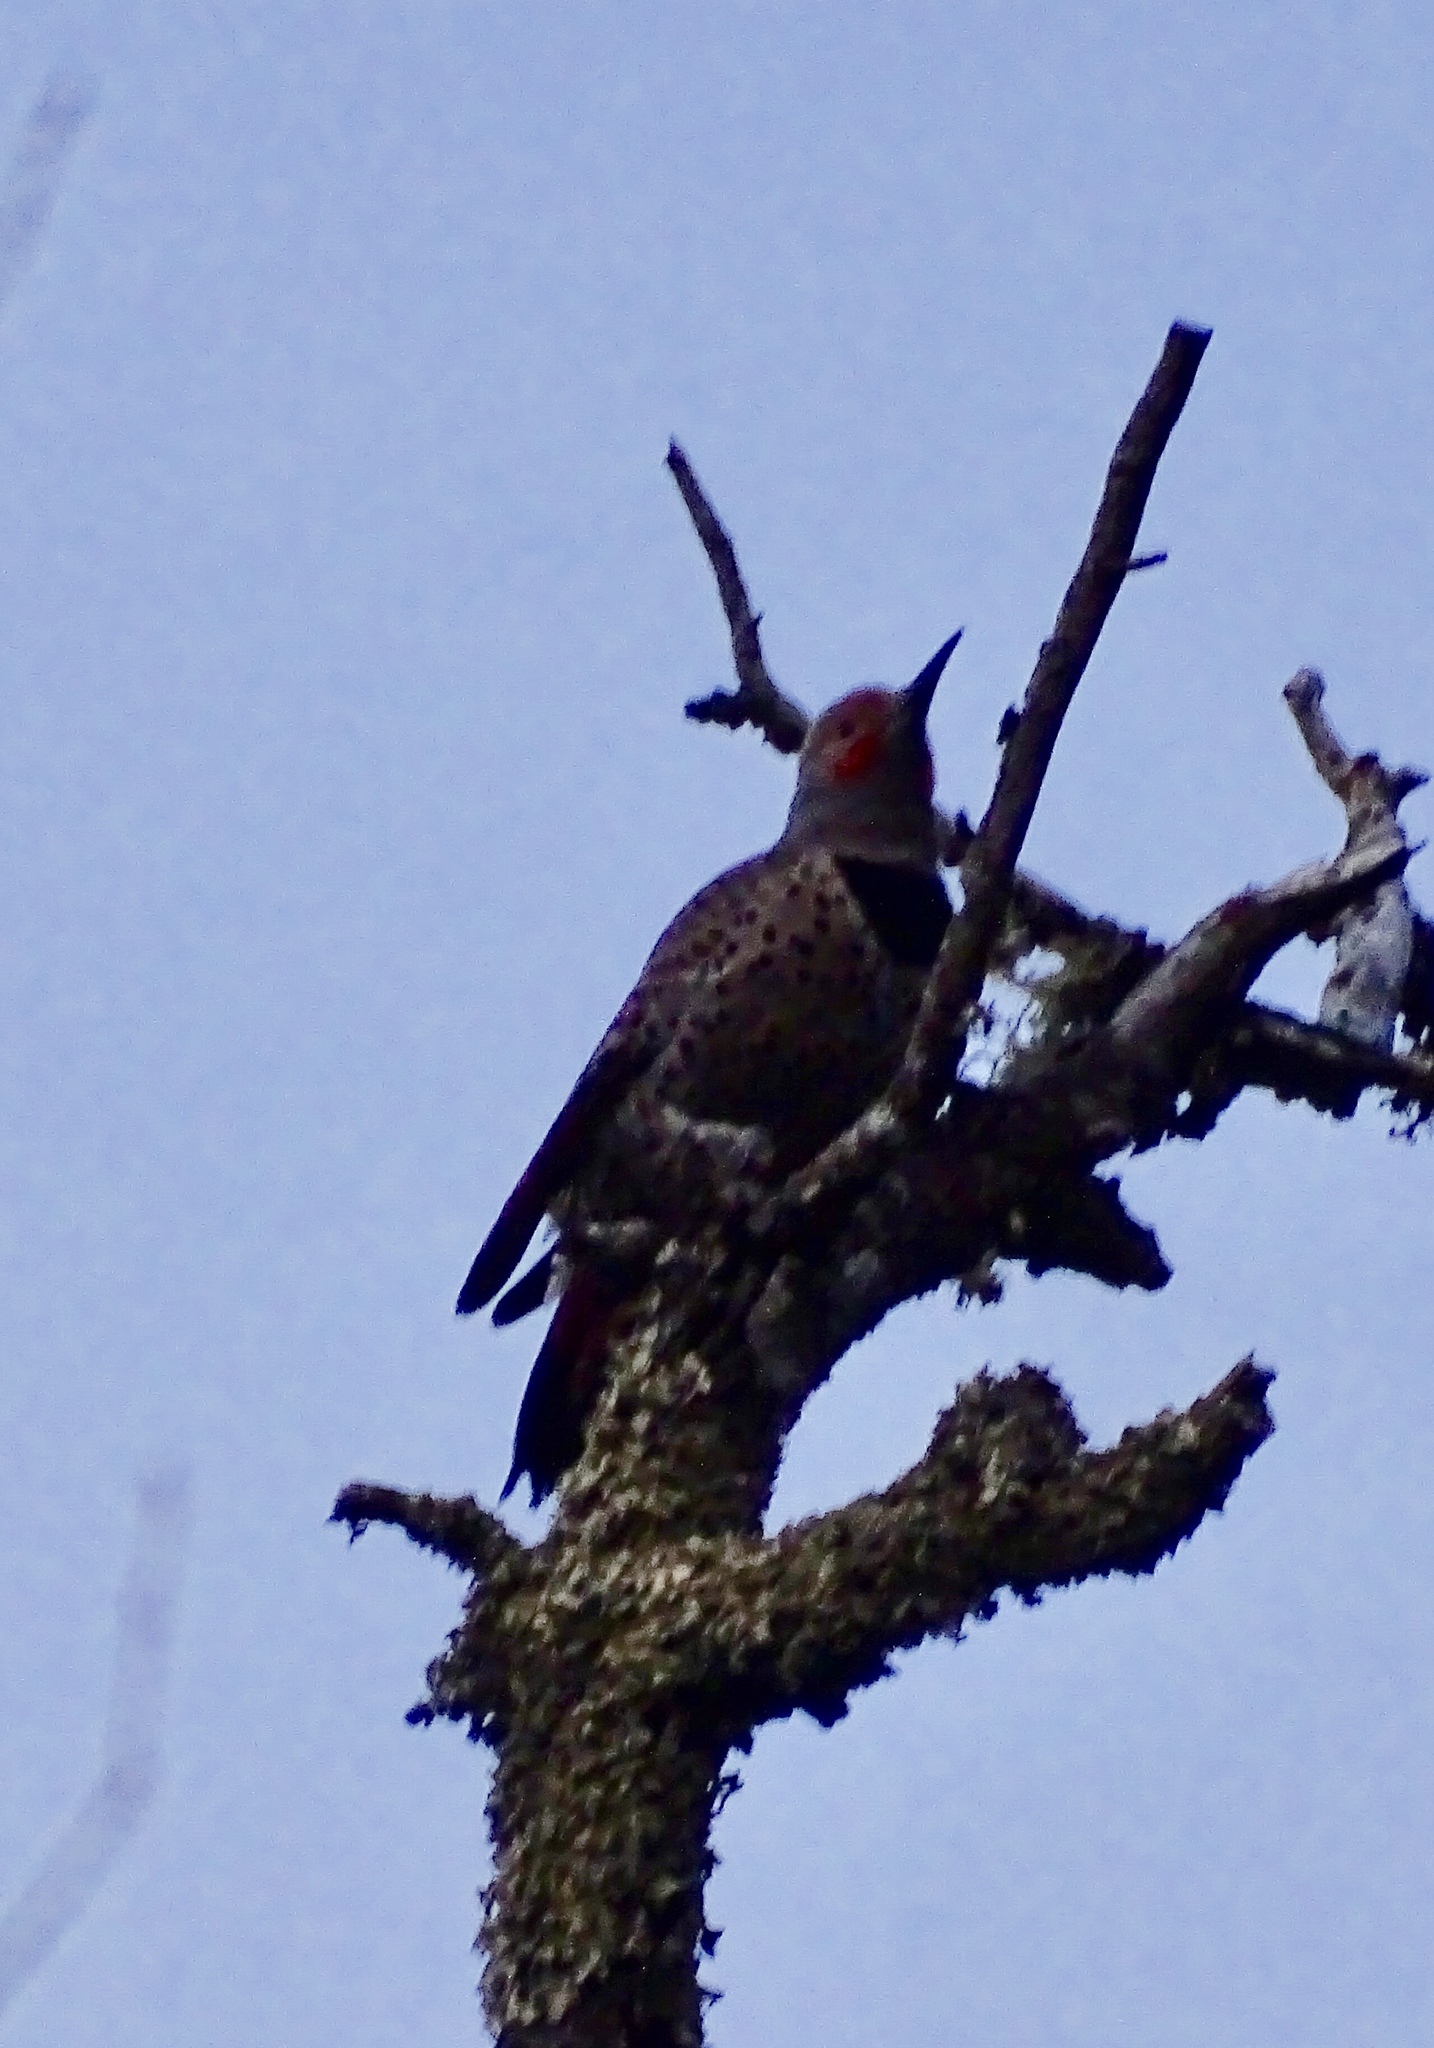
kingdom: Animalia
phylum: Chordata
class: Aves
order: Piciformes
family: Picidae
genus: Colaptes
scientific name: Colaptes auratus
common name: Northern flicker
